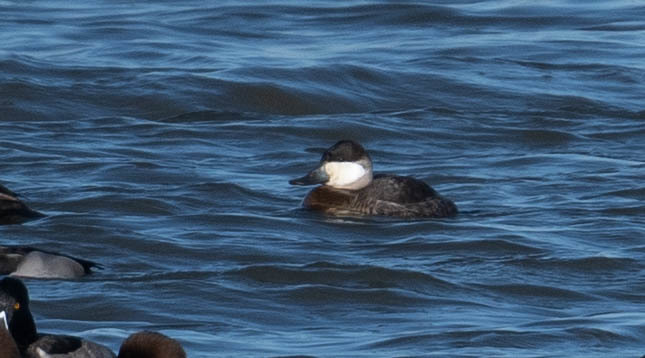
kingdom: Animalia
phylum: Chordata
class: Aves
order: Anseriformes
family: Anatidae
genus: Oxyura
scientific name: Oxyura jamaicensis
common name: Ruddy duck
